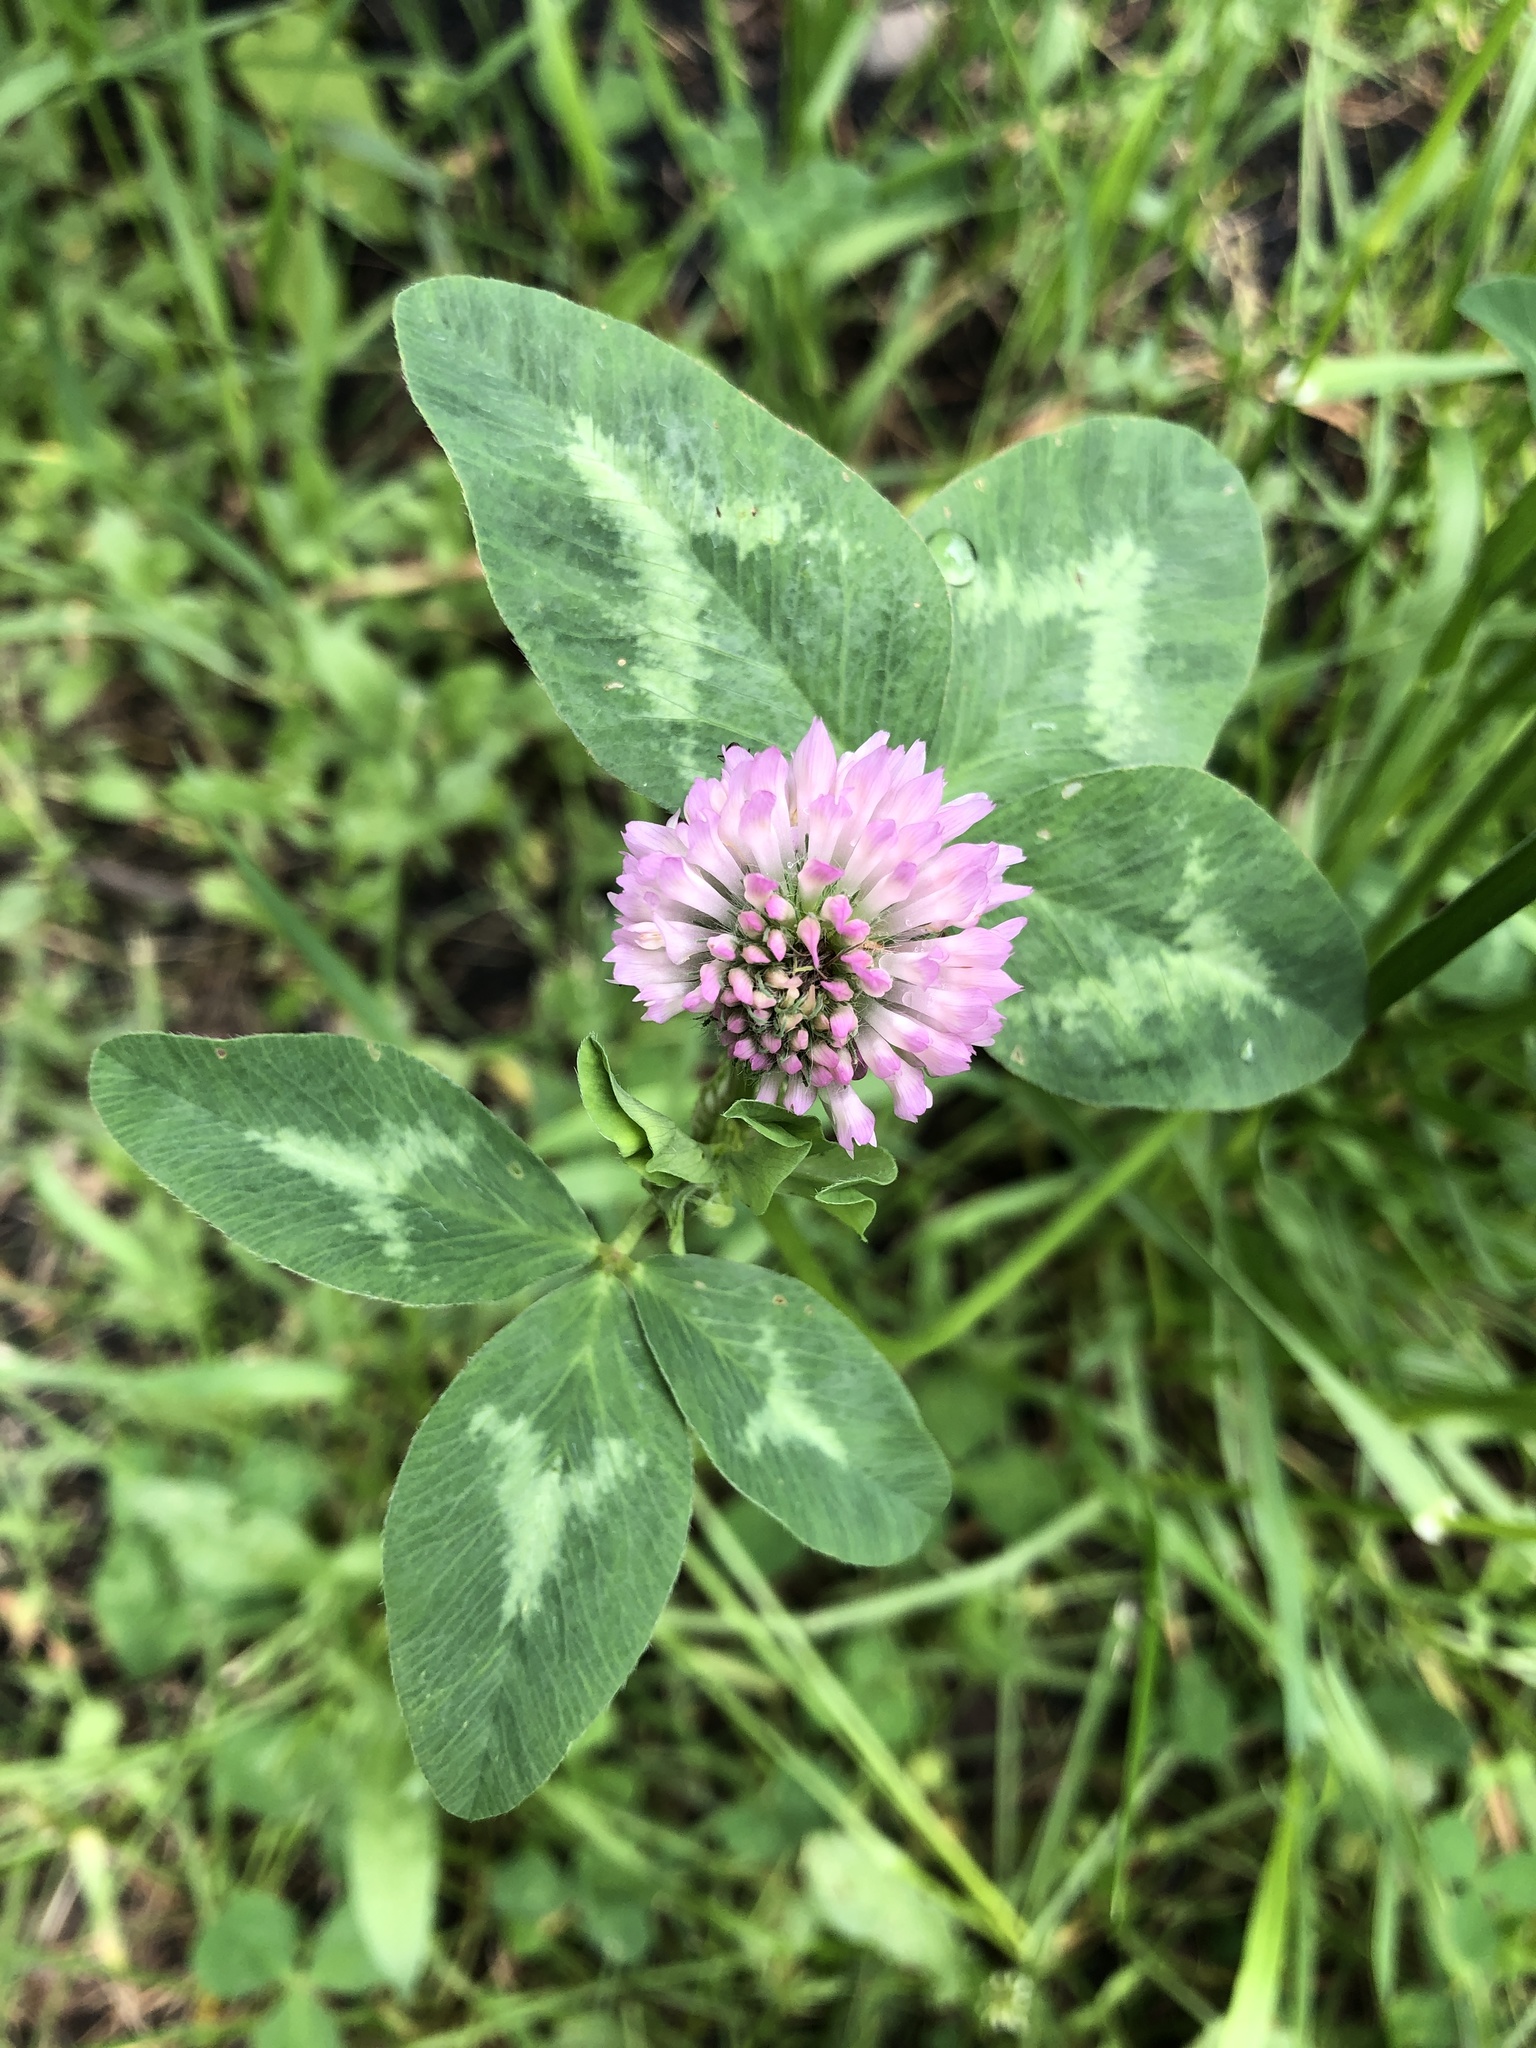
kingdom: Plantae
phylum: Tracheophyta
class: Magnoliopsida
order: Fabales
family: Fabaceae
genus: Trifolium
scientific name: Trifolium pratense
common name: Red clover
